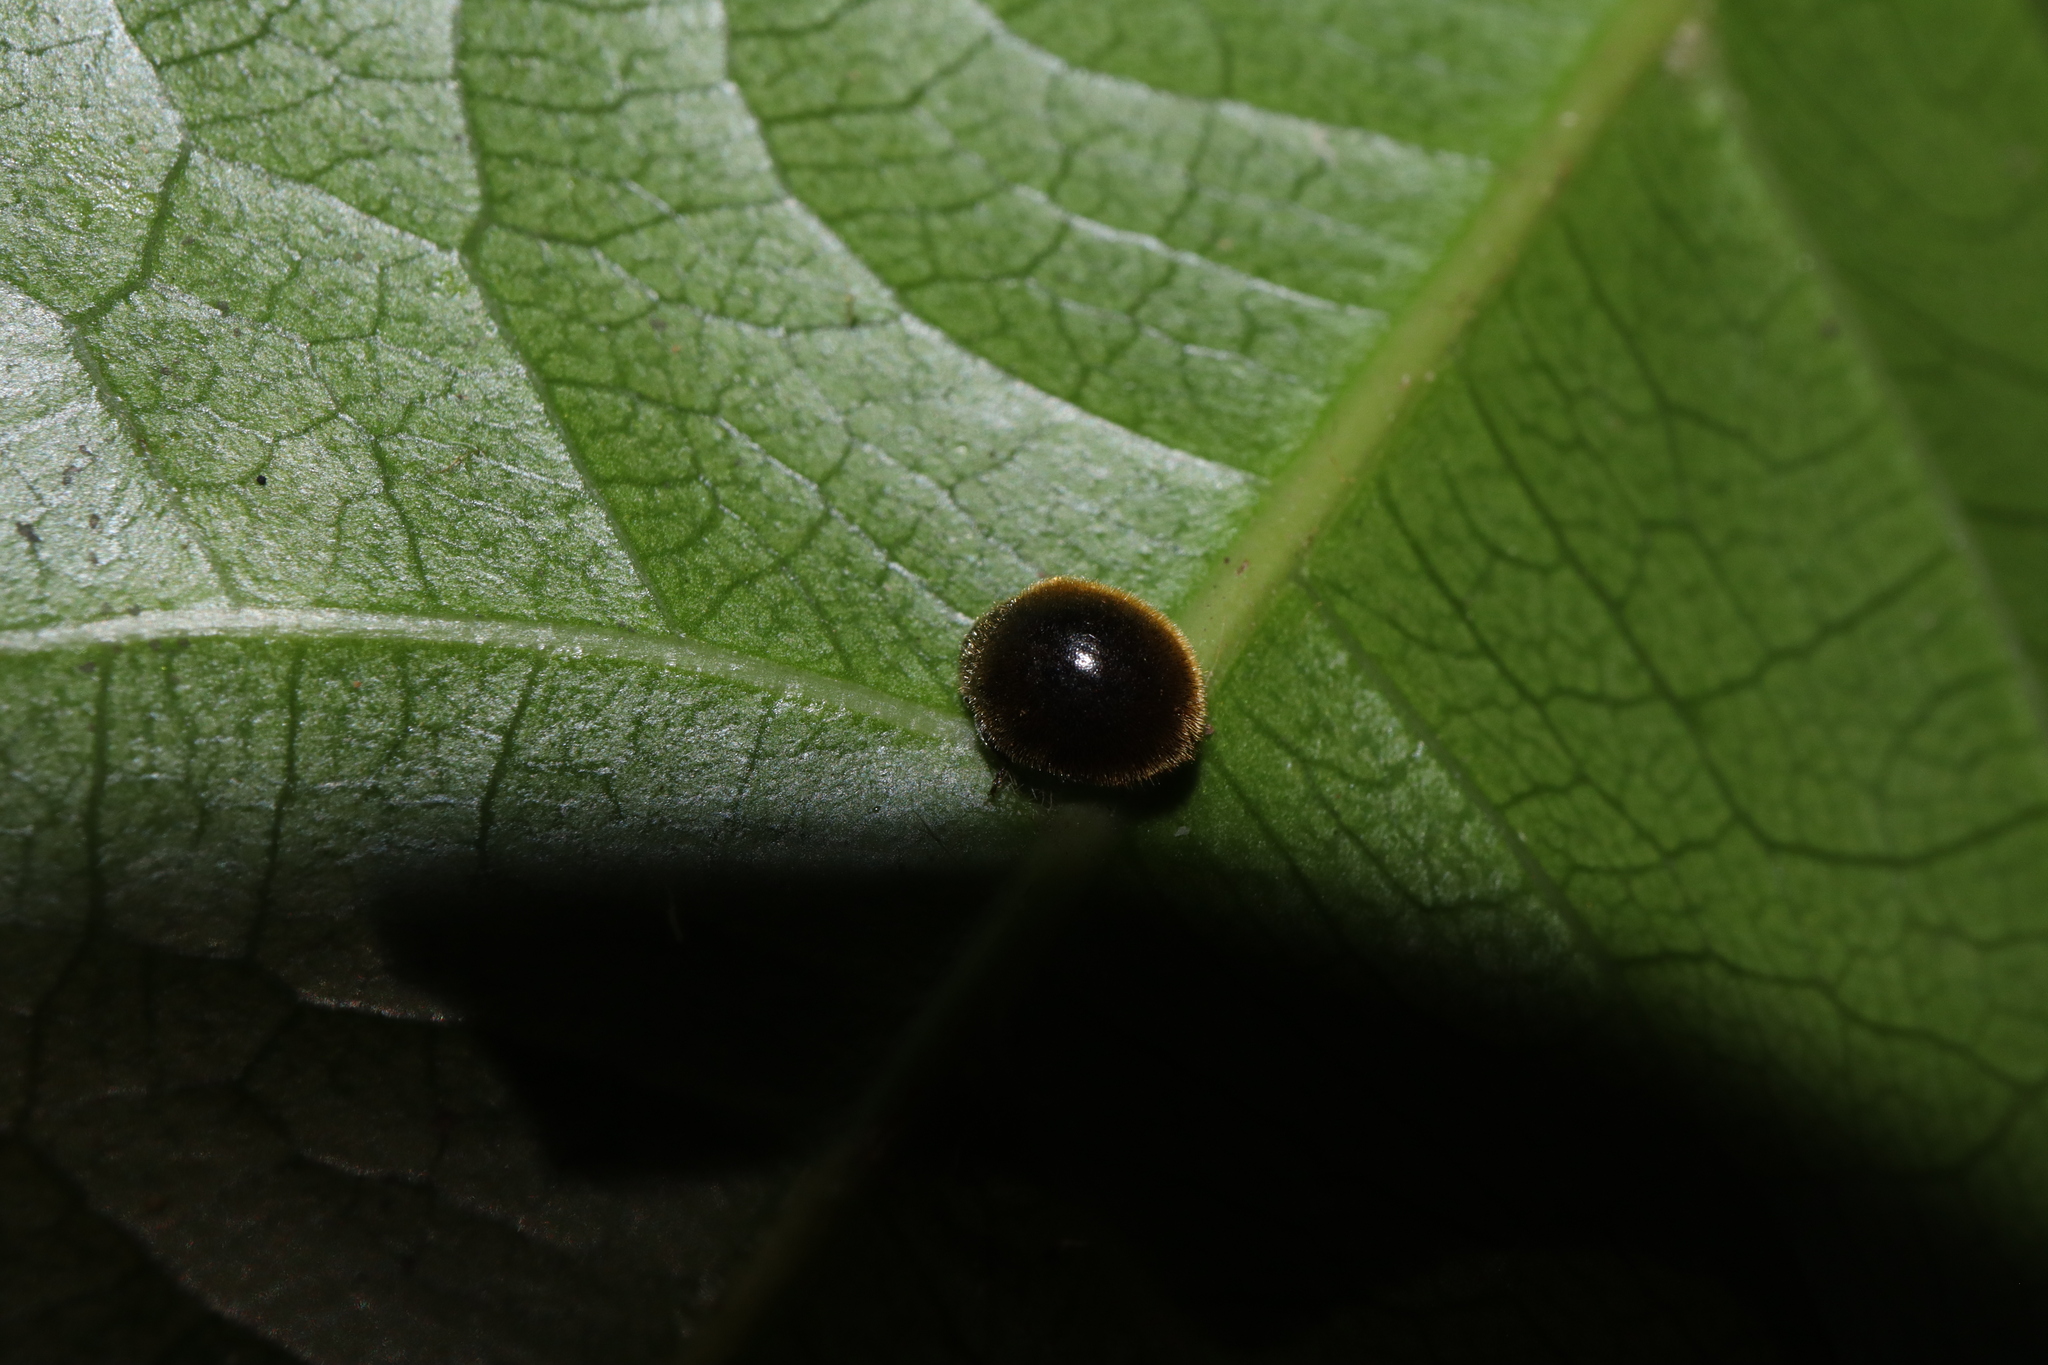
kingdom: Animalia
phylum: Arthropoda
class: Insecta
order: Coleoptera
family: Coccinellidae
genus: Erithionyx
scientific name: Erithionyx
